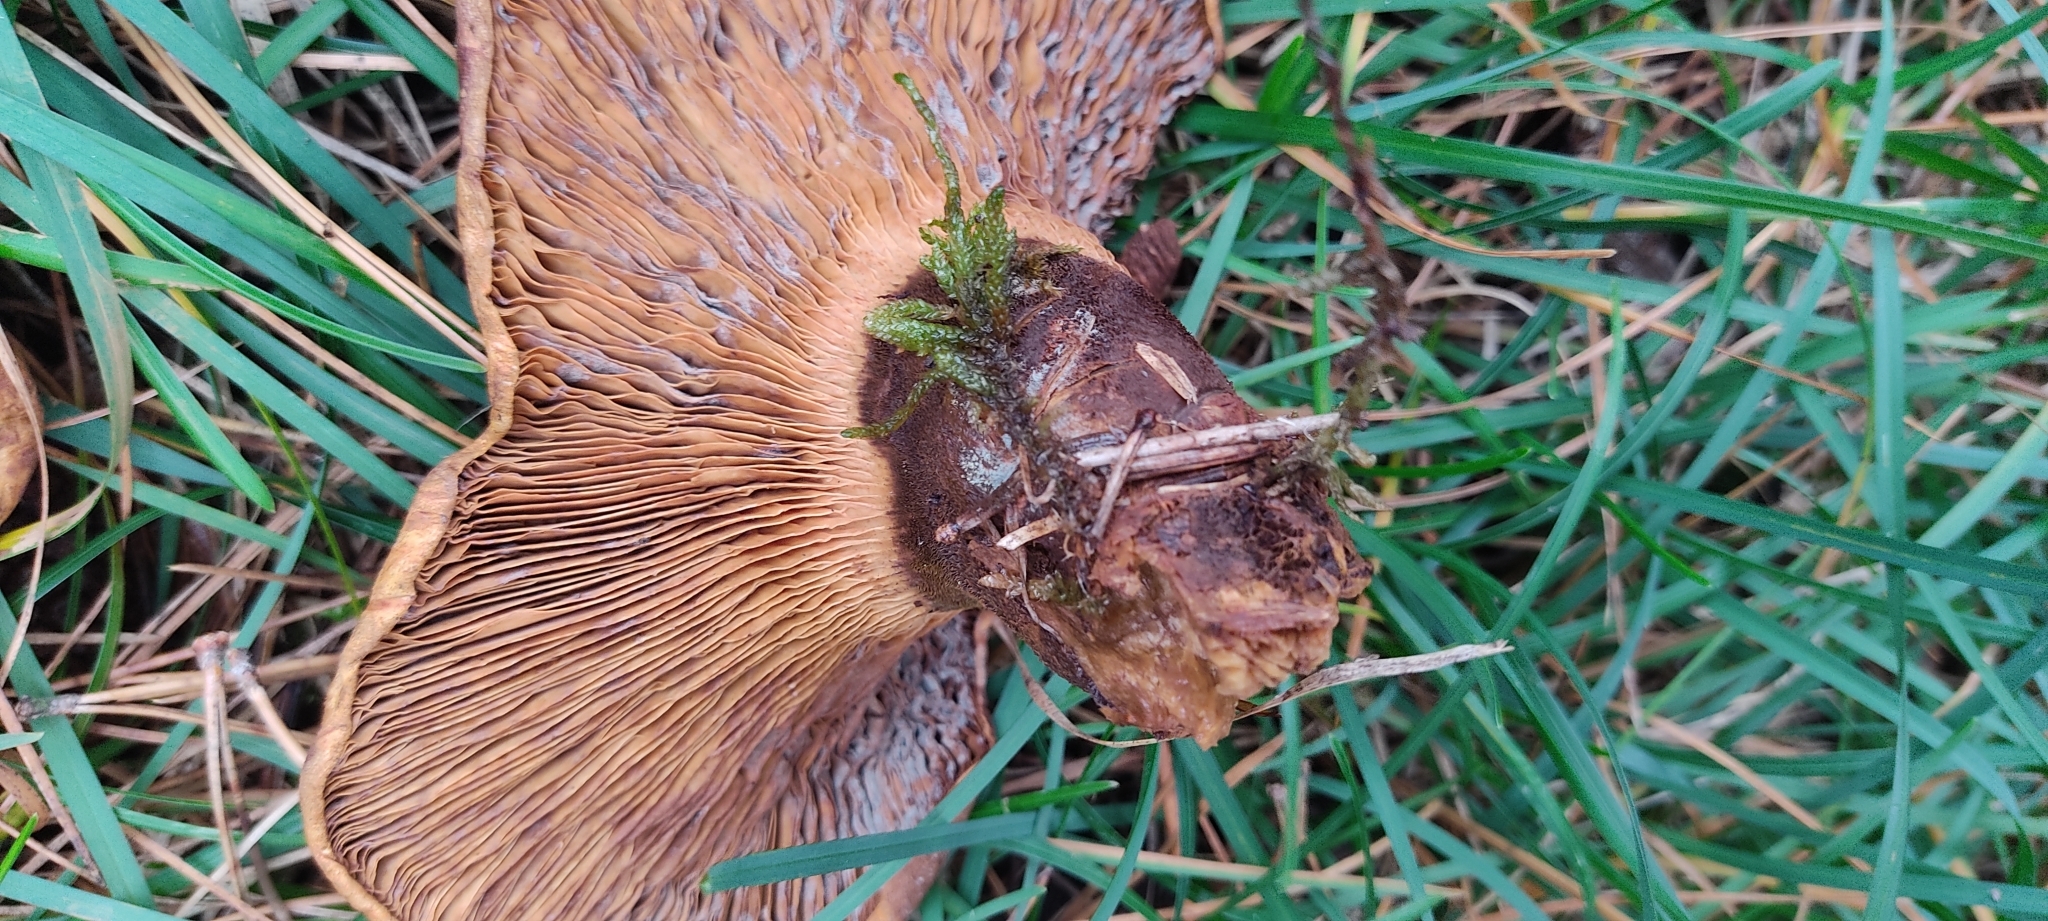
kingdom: Fungi
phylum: Basidiomycota
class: Agaricomycetes
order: Boletales
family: Tapinellaceae
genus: Tapinella
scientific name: Tapinella atrotomentosa
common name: Velvet rollrim
